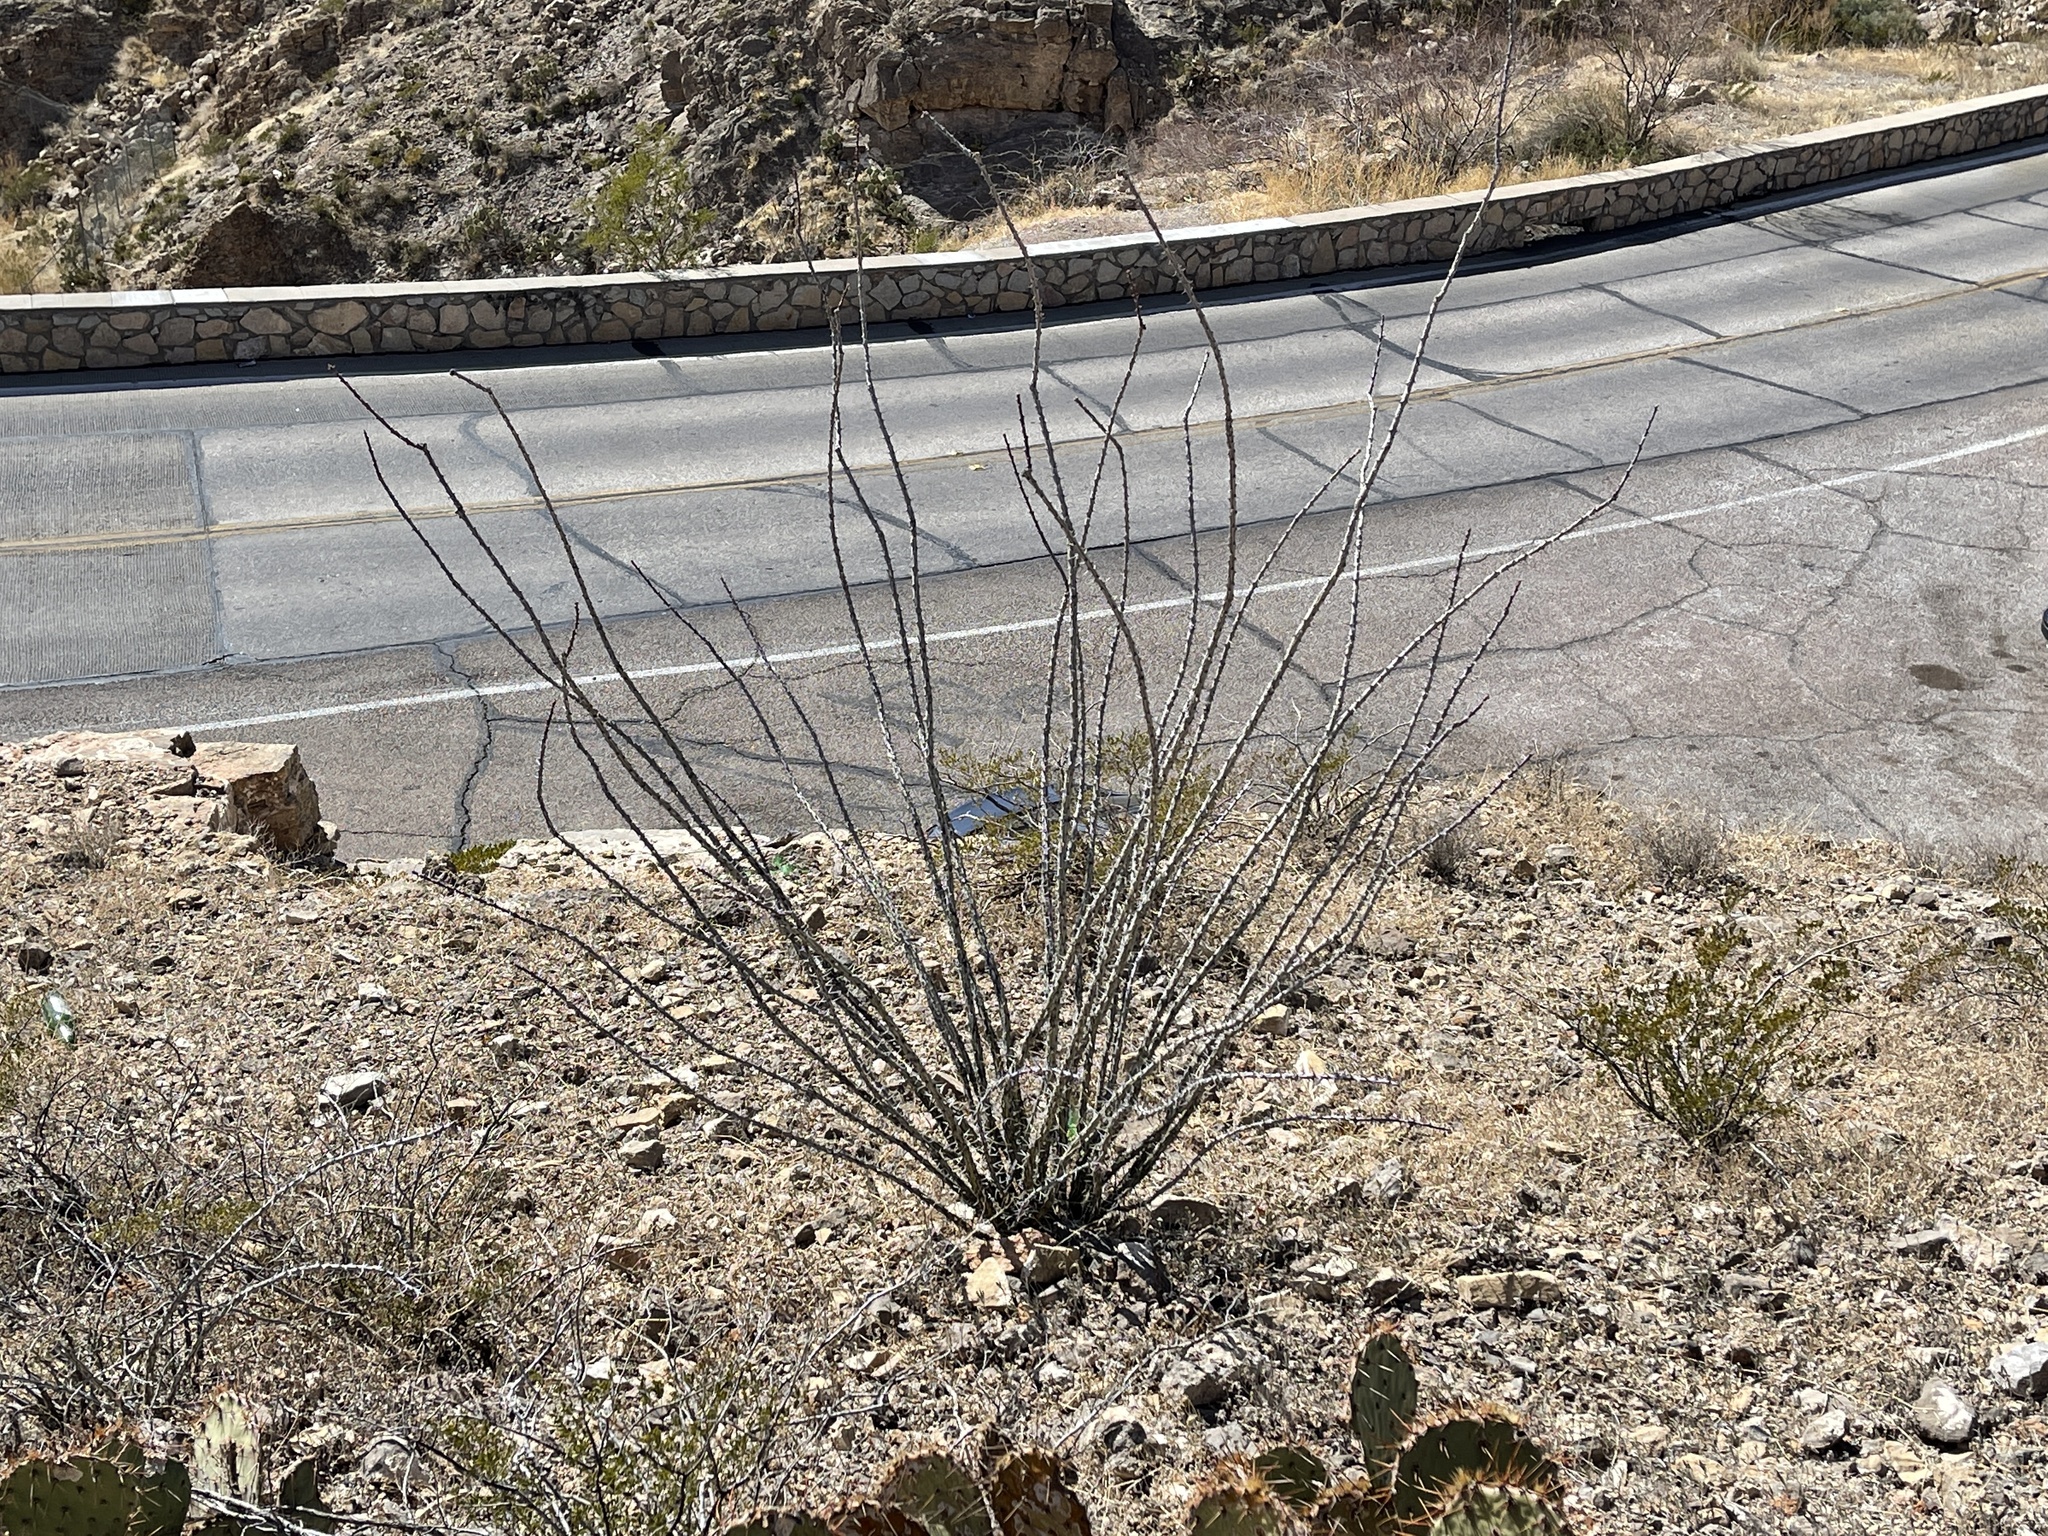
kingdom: Plantae
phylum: Tracheophyta
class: Magnoliopsida
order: Ericales
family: Fouquieriaceae
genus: Fouquieria
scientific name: Fouquieria splendens
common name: Vine-cactus
